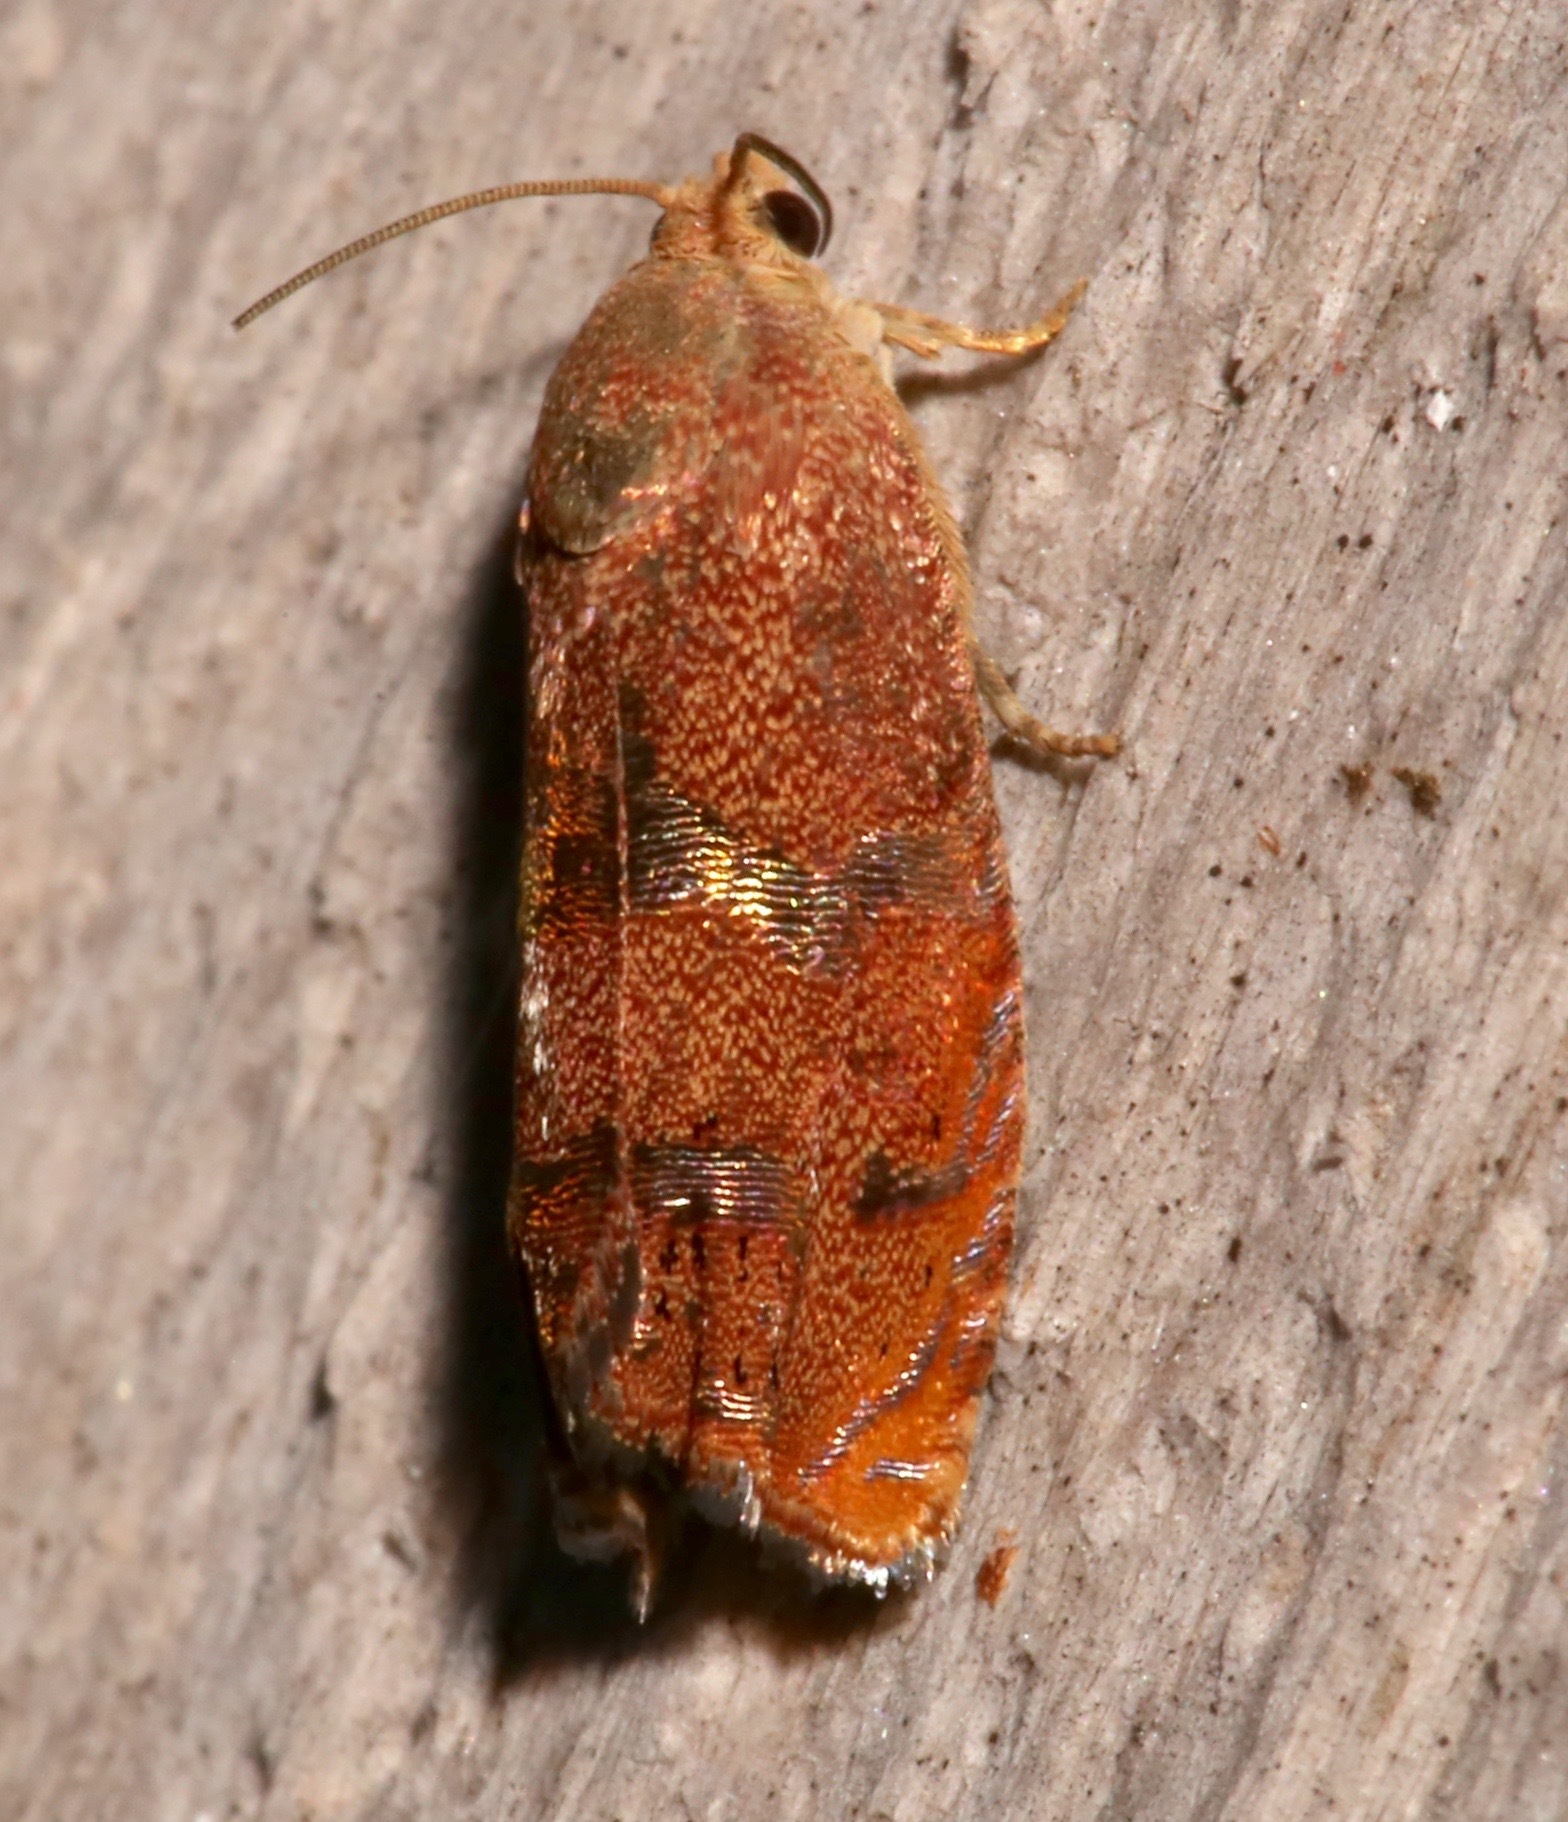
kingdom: Animalia
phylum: Arthropoda
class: Insecta
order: Lepidoptera
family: Tortricidae
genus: Cydia
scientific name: Cydia latiferreana
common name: Filbertworm moth
